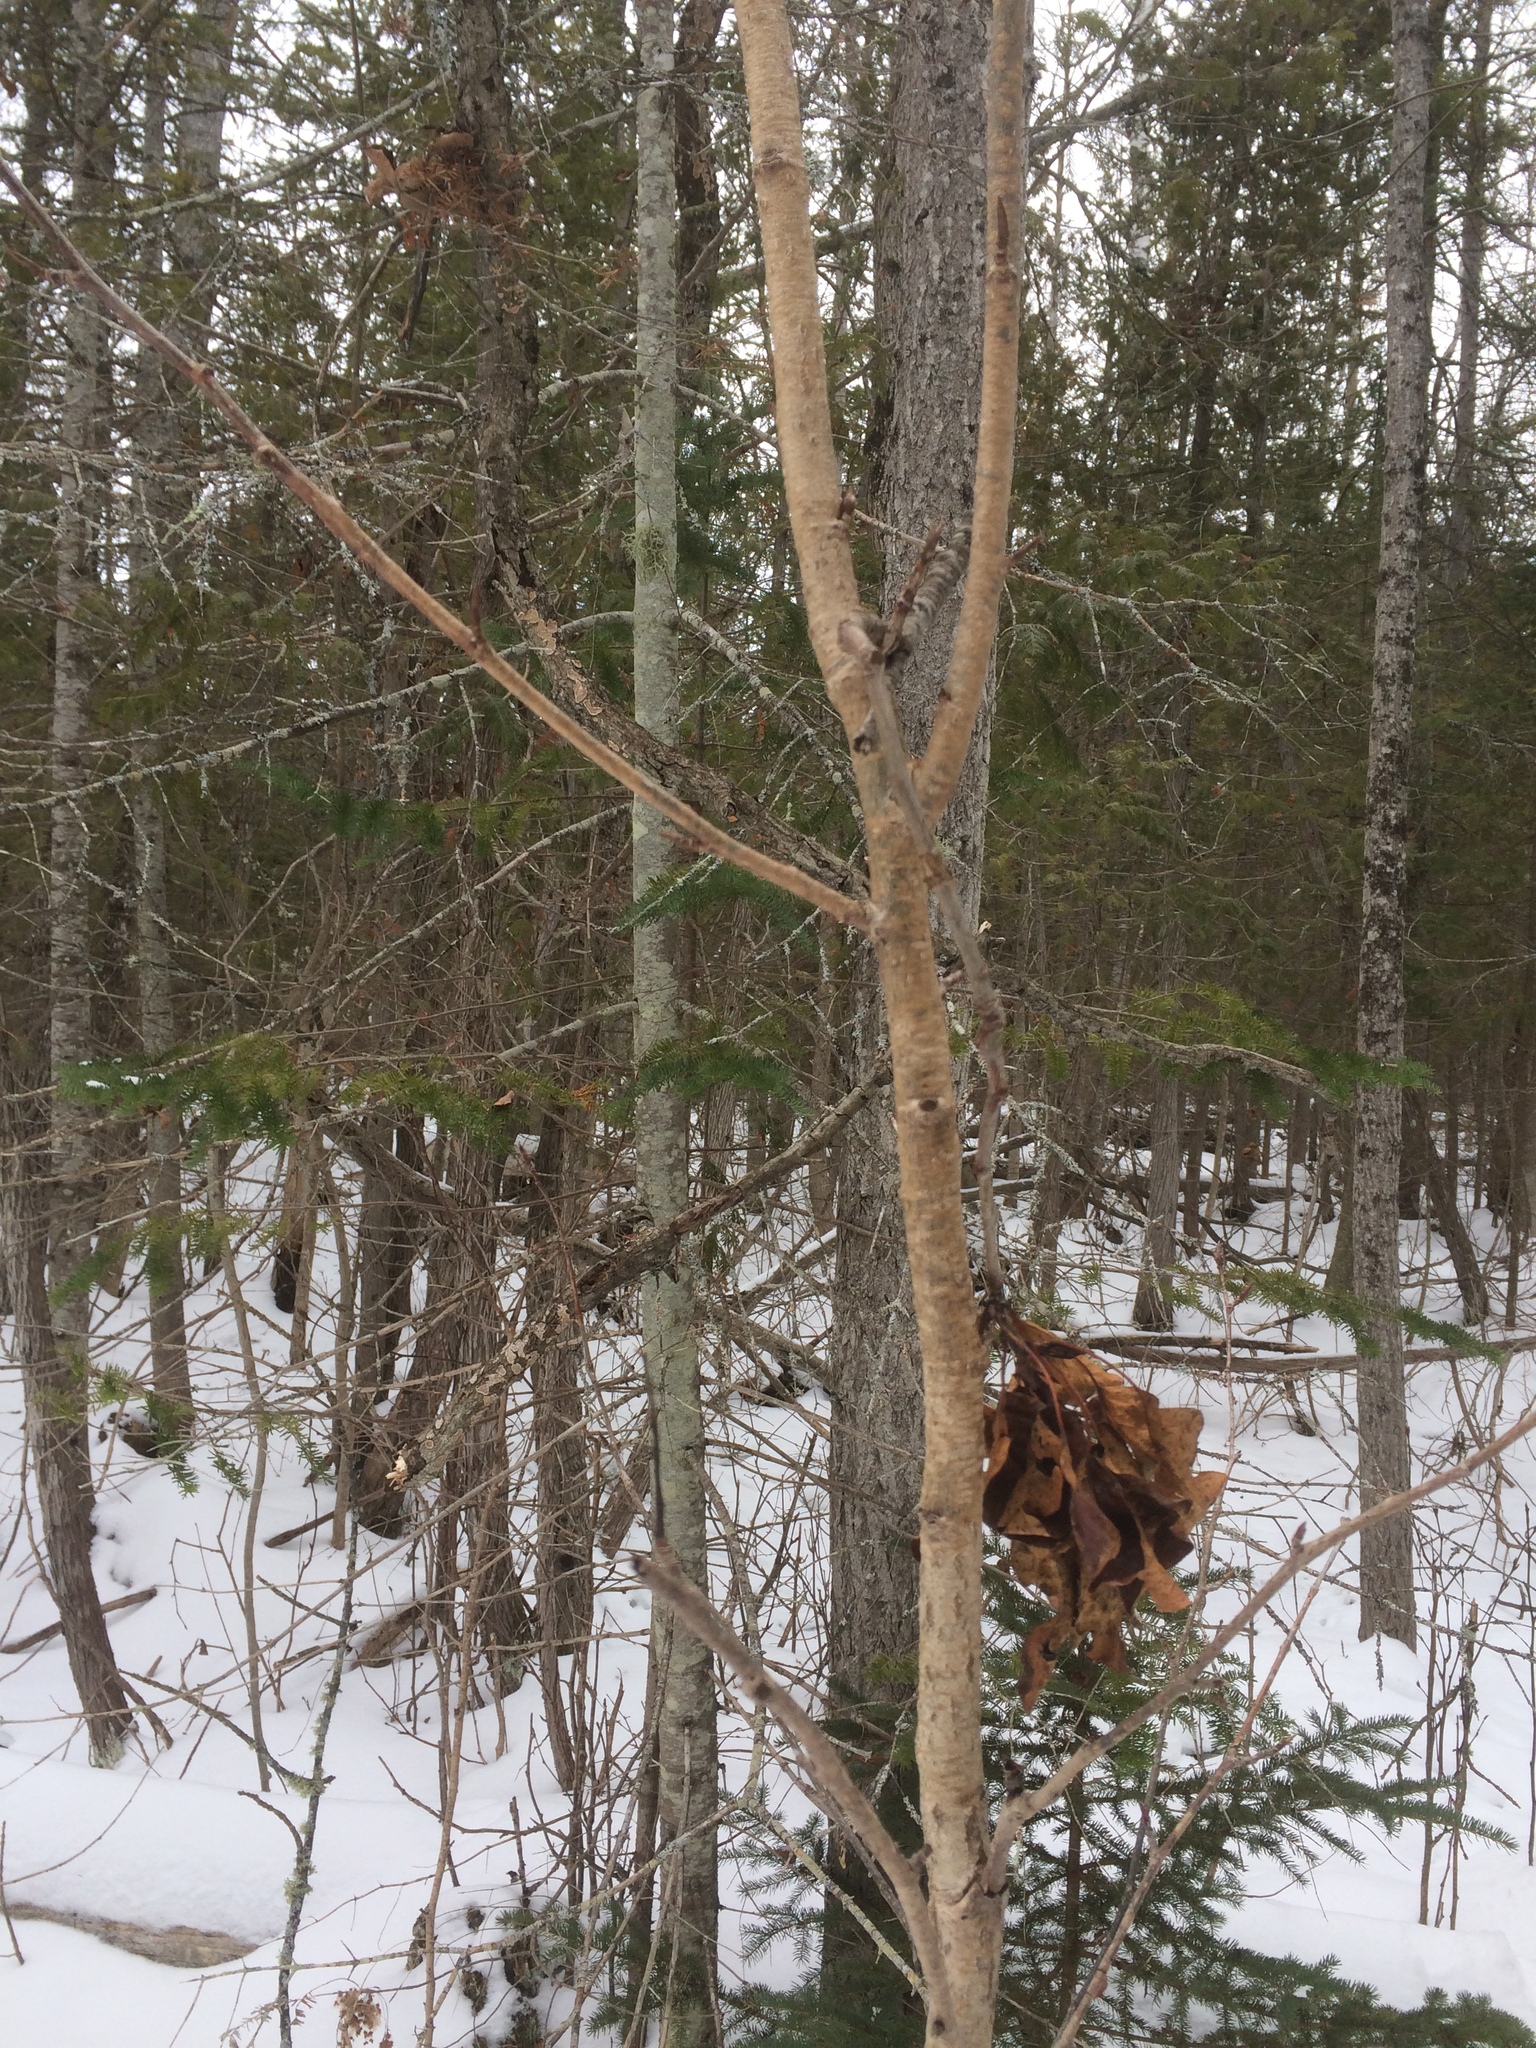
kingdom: Plantae
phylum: Tracheophyta
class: Magnoliopsida
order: Malpighiales
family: Salicaceae
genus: Populus
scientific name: Populus balsamifera
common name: Balsam poplar
